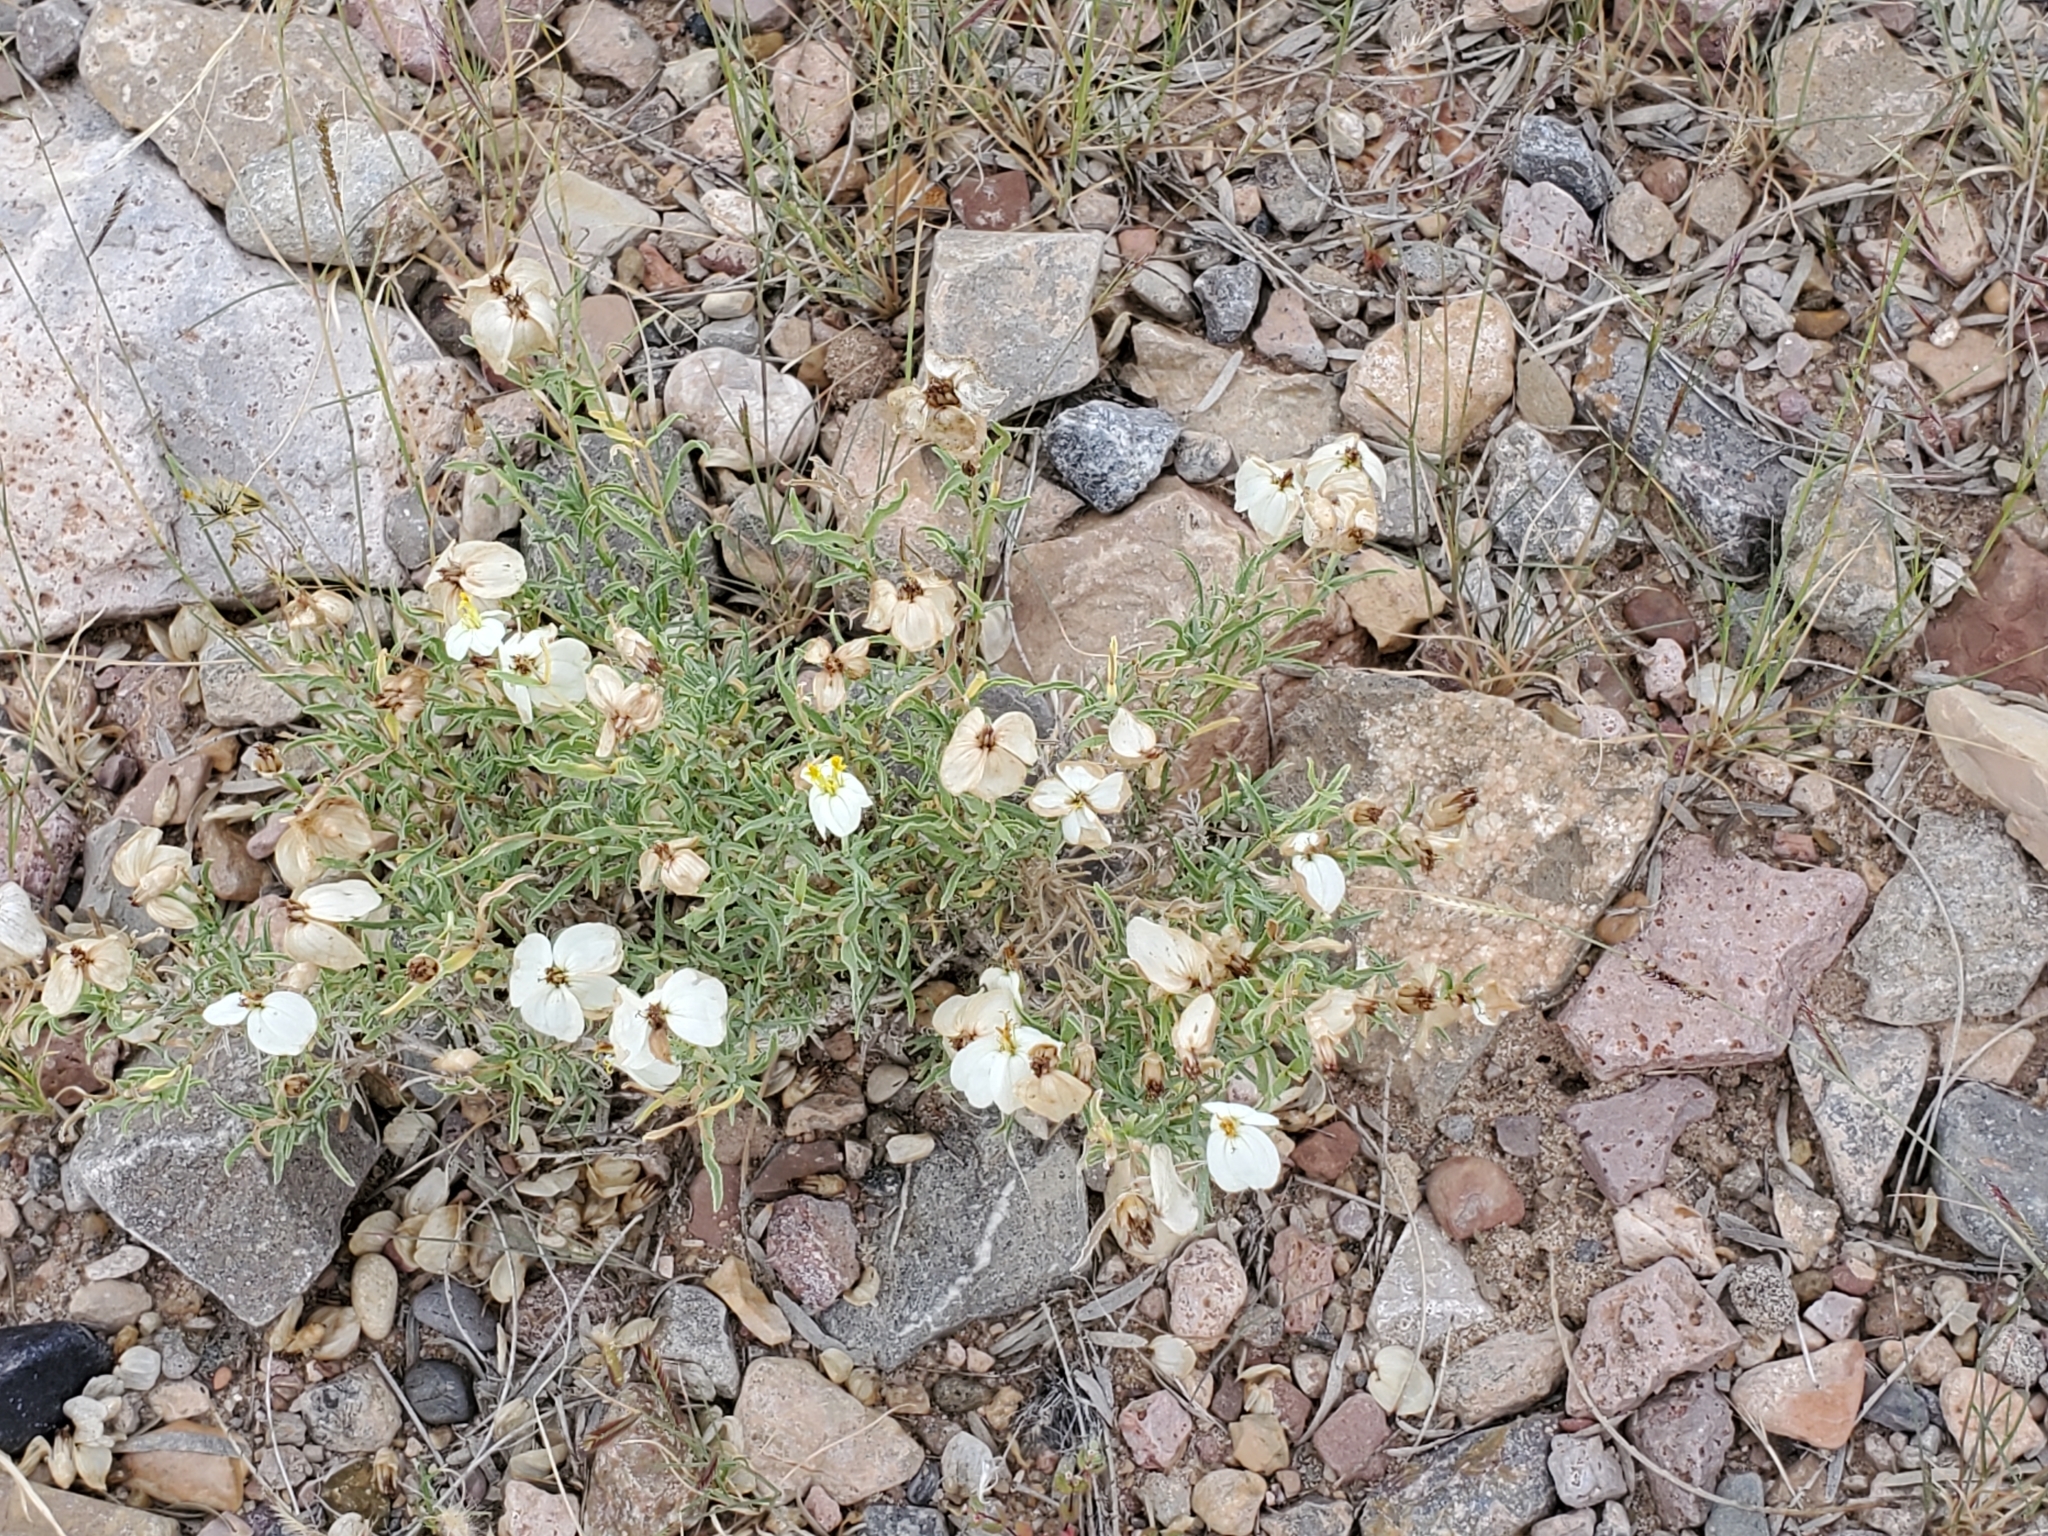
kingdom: Plantae
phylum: Tracheophyta
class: Magnoliopsida
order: Asterales
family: Asteraceae
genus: Zinnia
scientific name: Zinnia acerosa
